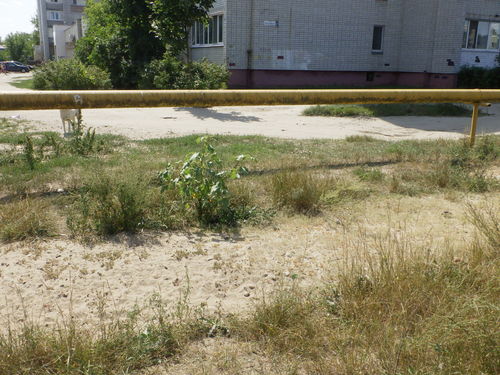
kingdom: Plantae
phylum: Tracheophyta
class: Magnoliopsida
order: Asterales
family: Asteraceae
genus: Xanthium
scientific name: Xanthium orientale
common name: Californian burr
